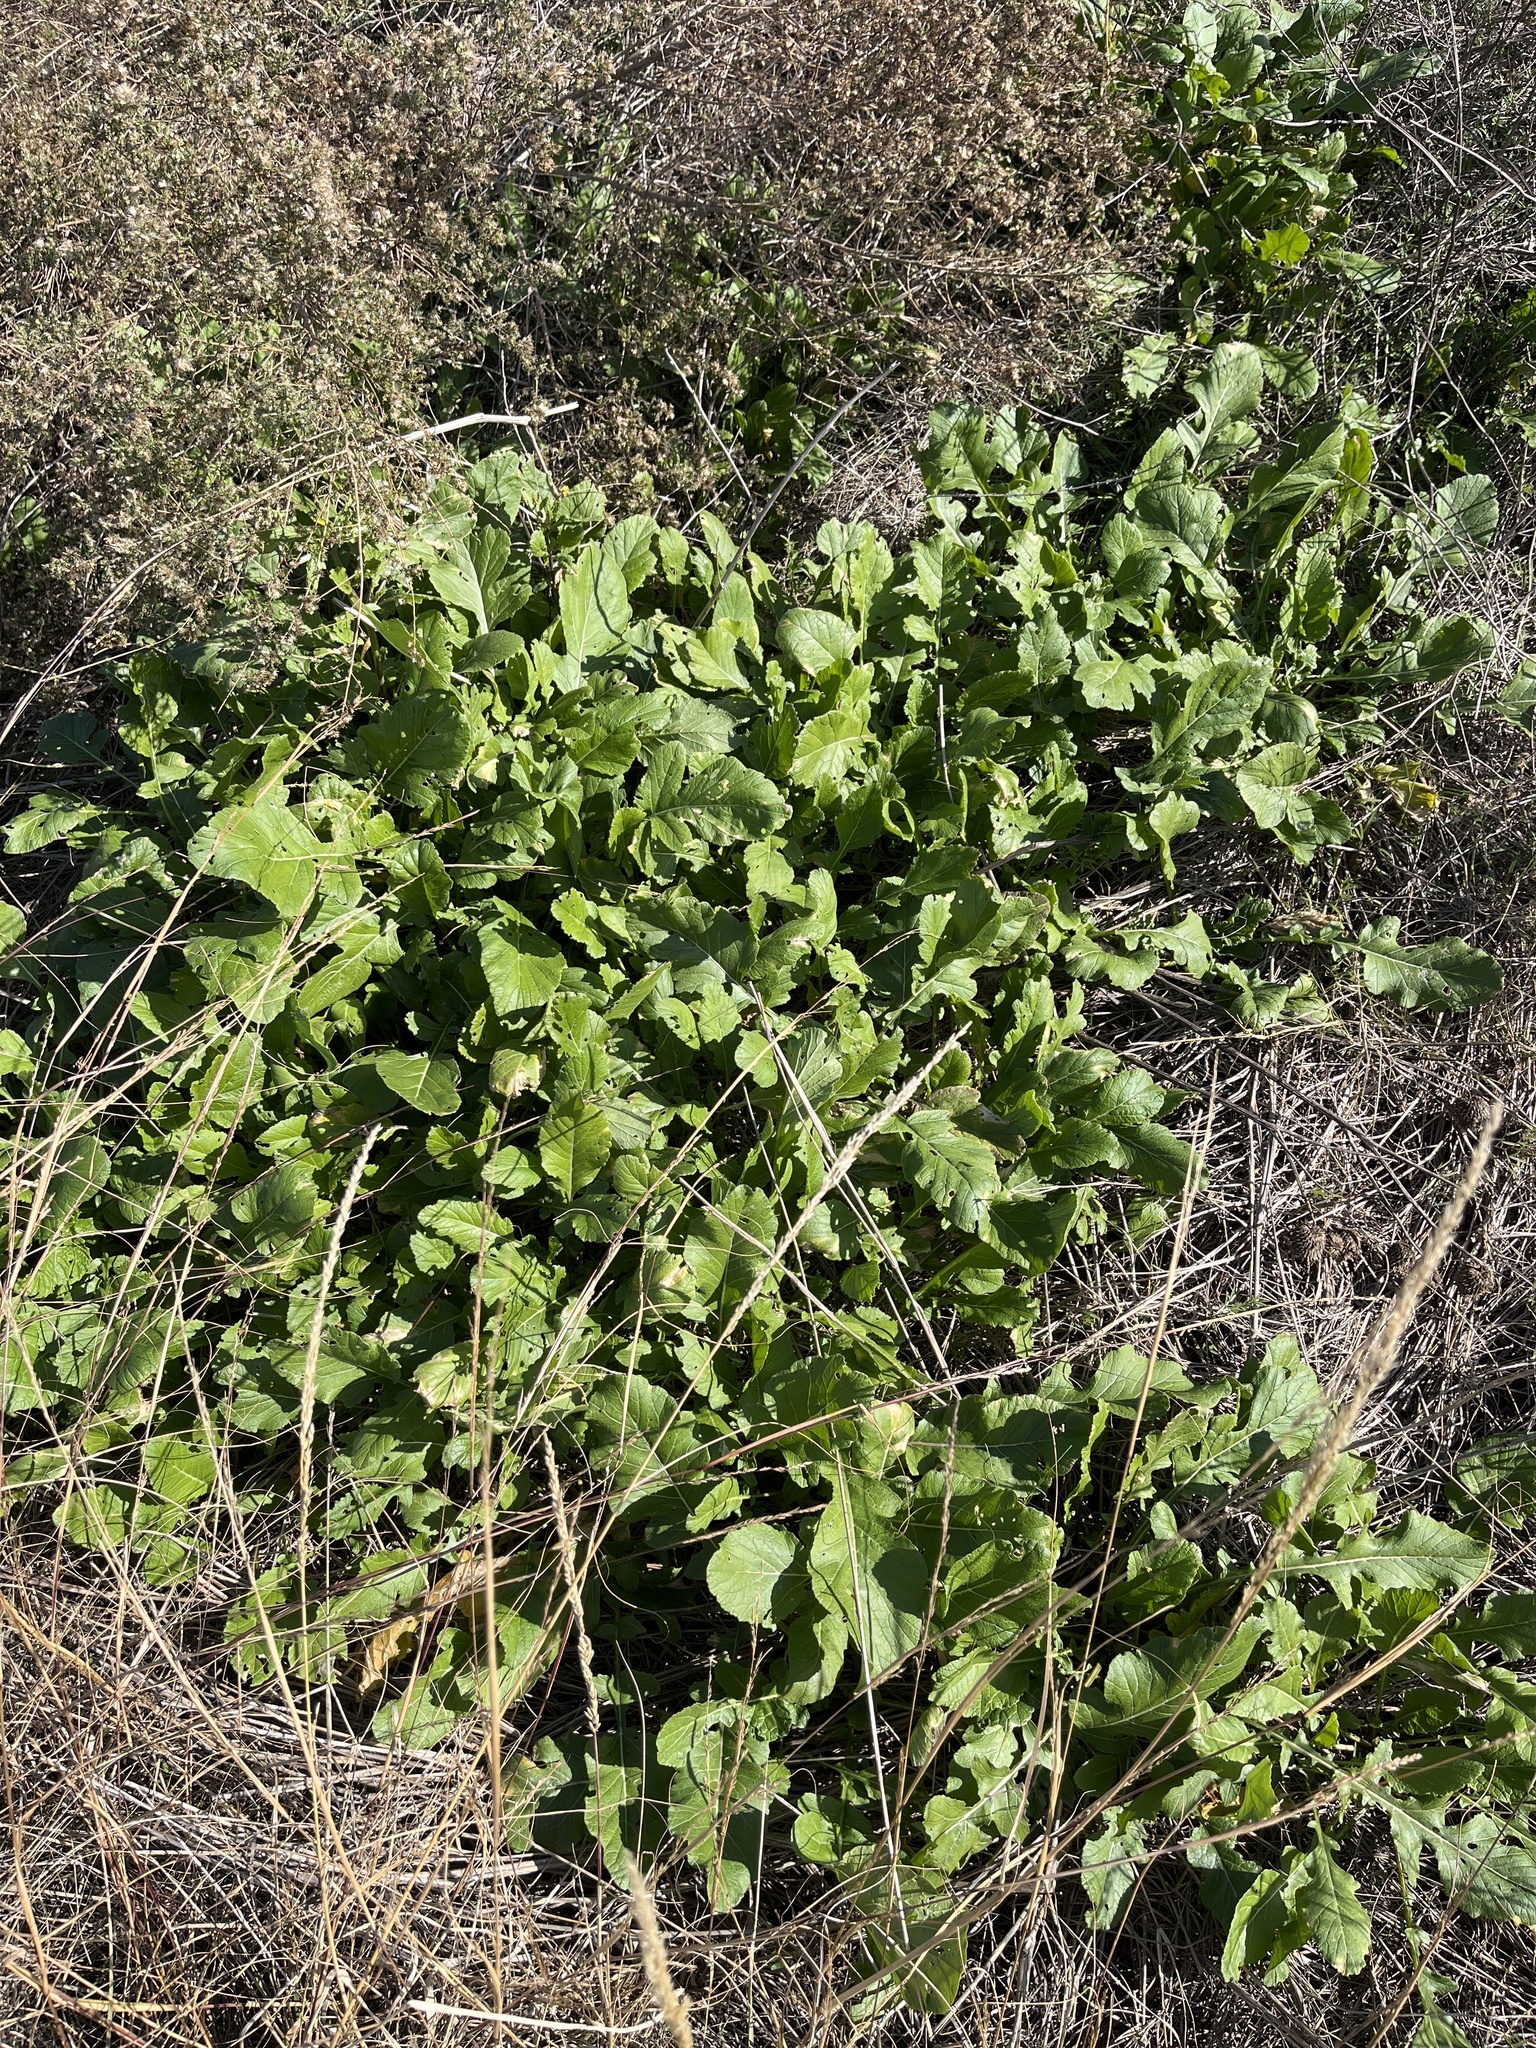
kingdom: Plantae
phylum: Tracheophyta
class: Magnoliopsida
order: Brassicales
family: Brassicaceae
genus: Rapistrum
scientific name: Rapistrum rugosum
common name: Annual bastardcabbage
